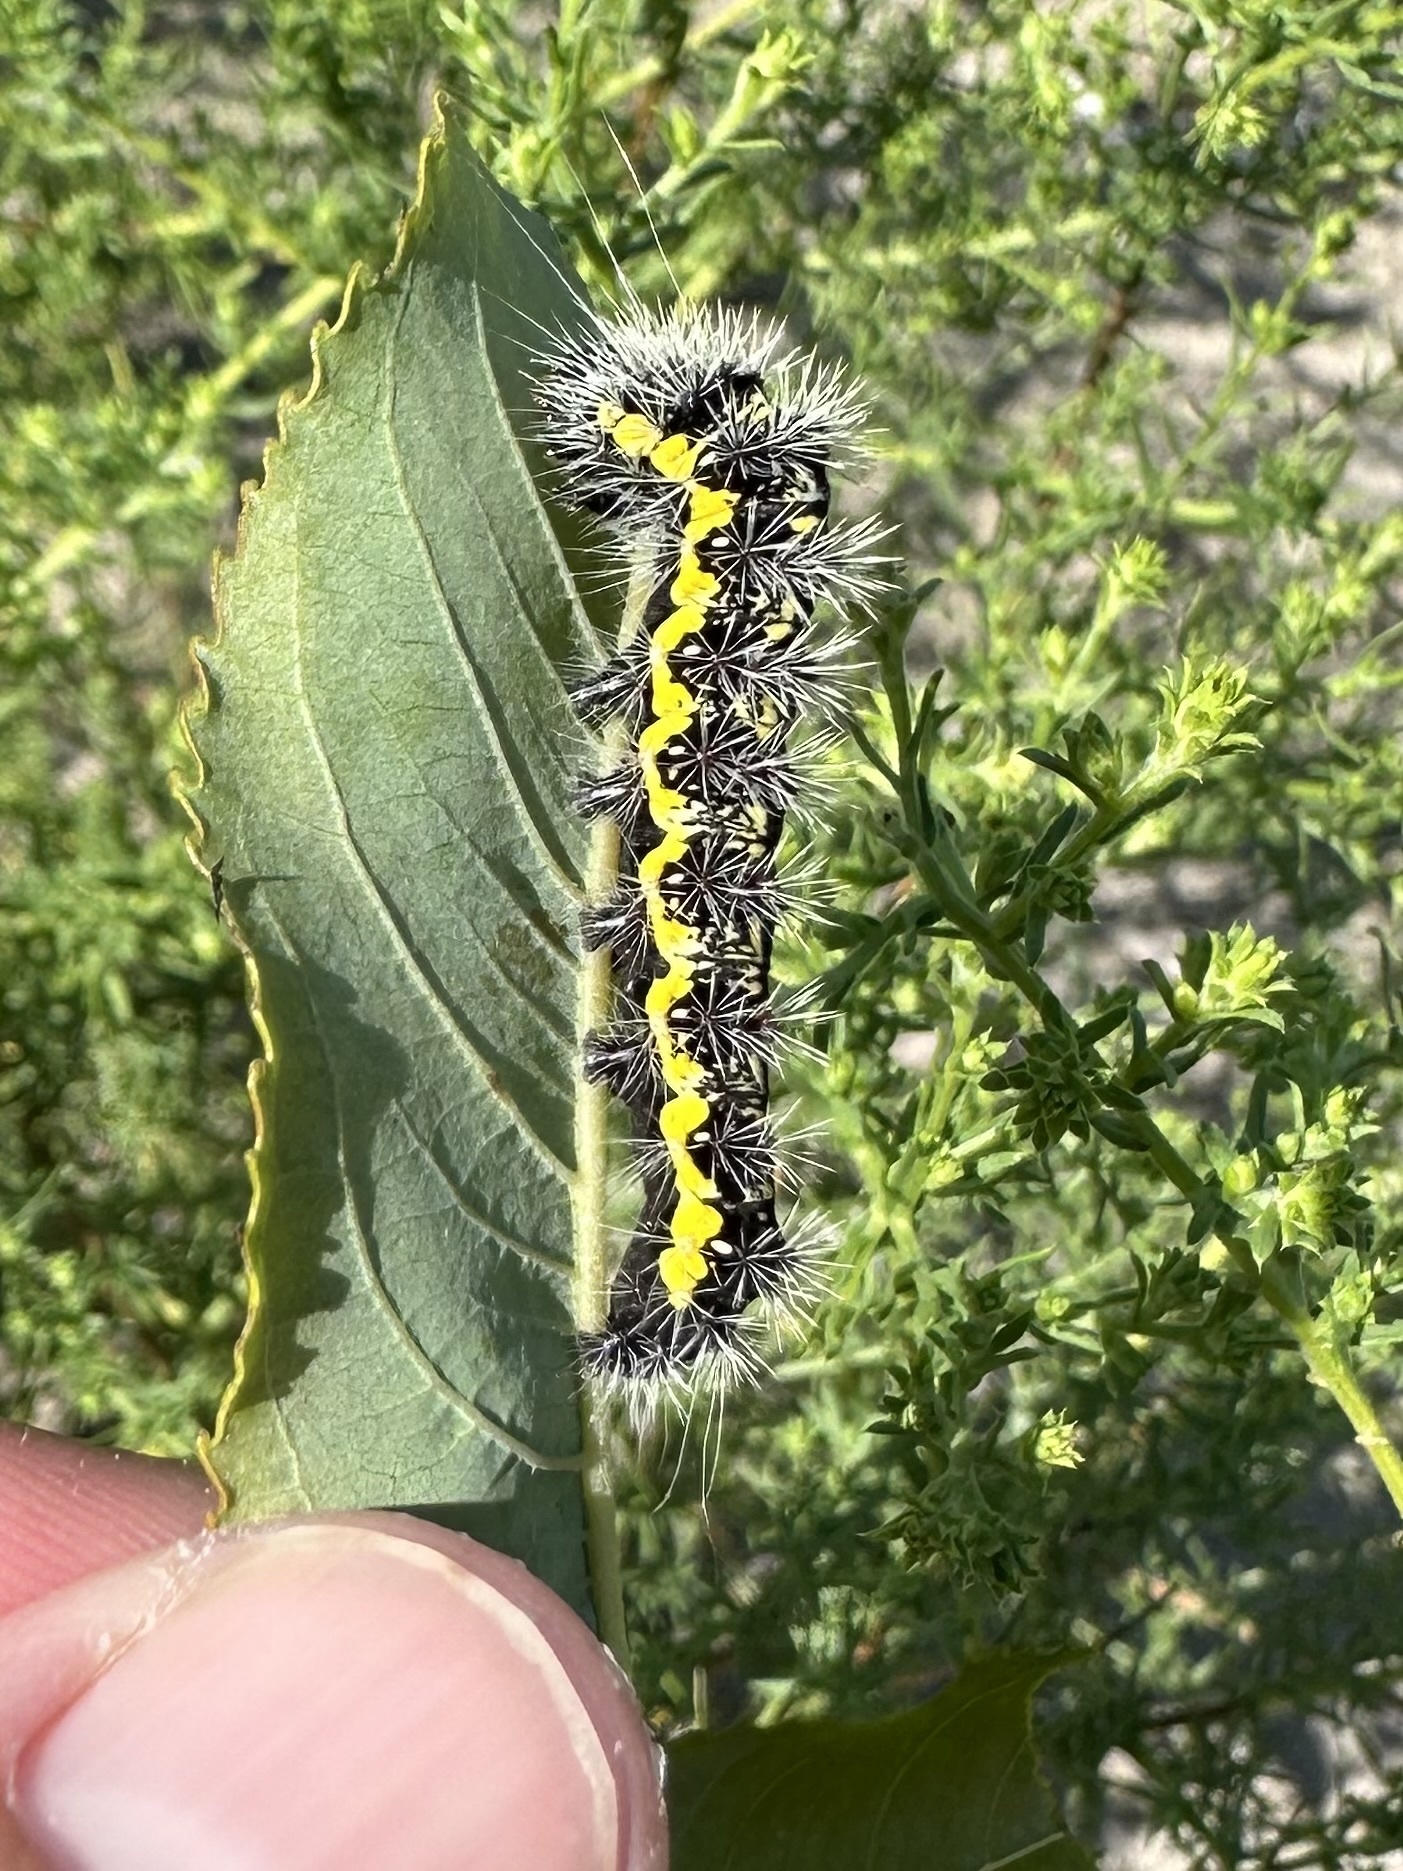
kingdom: Animalia
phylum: Arthropoda
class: Insecta
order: Lepidoptera
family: Noctuidae
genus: Acronicta
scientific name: Acronicta oblinita
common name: Smeared dagger
